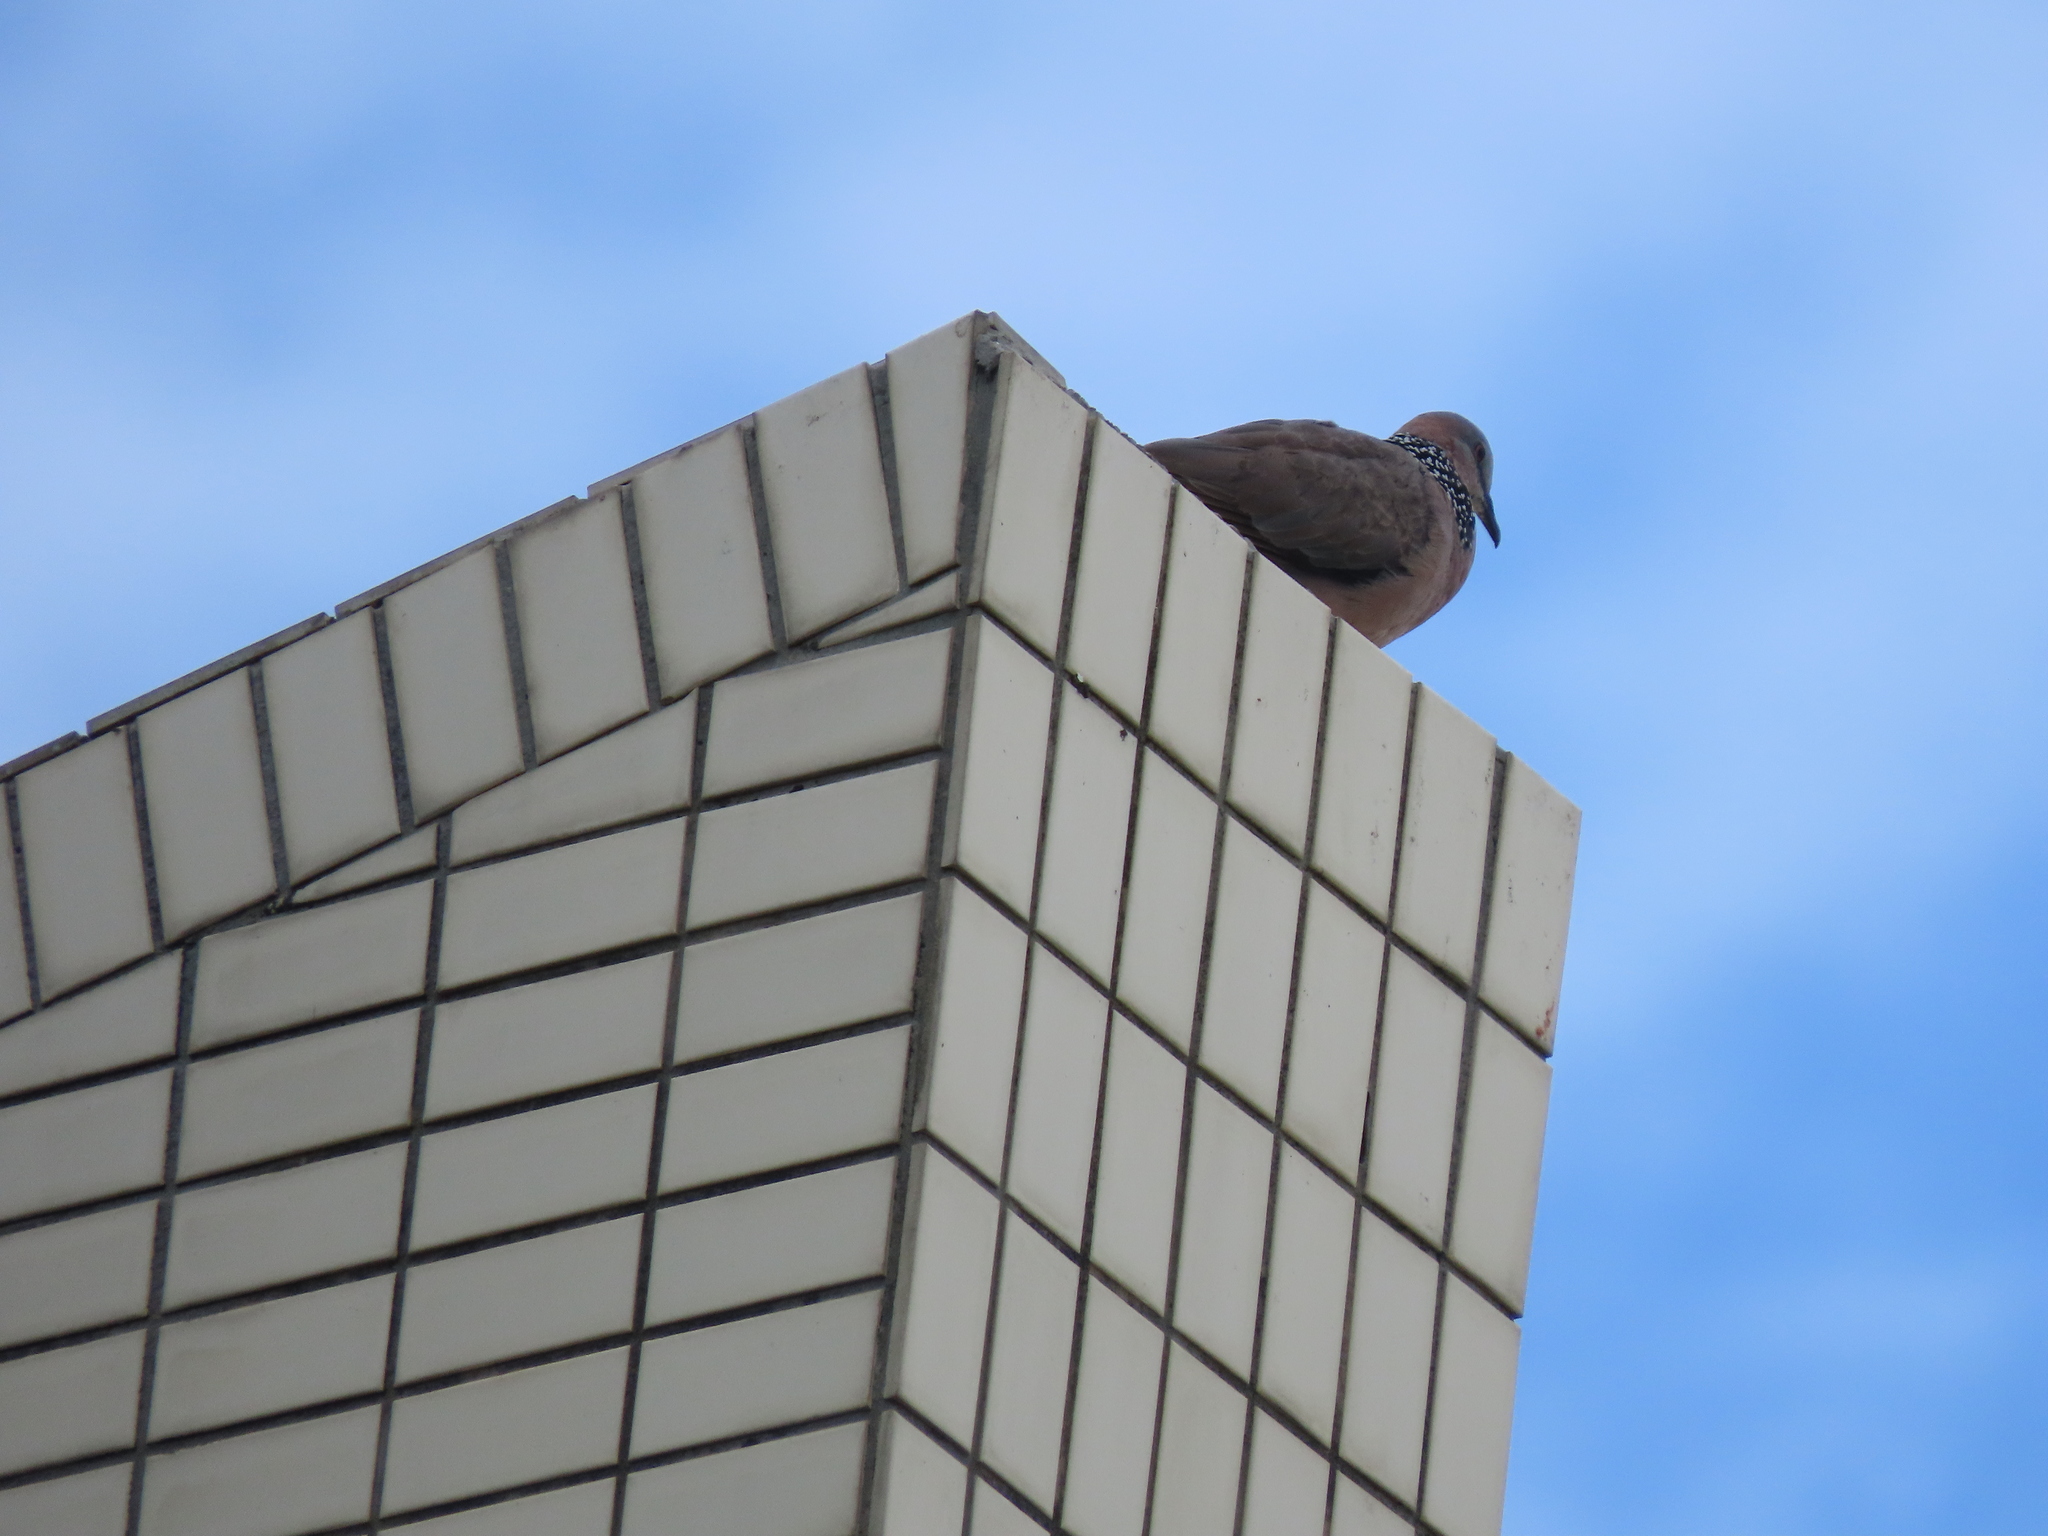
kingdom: Animalia
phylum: Chordata
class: Aves
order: Columbiformes
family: Columbidae
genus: Spilopelia
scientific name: Spilopelia chinensis
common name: Spotted dove
